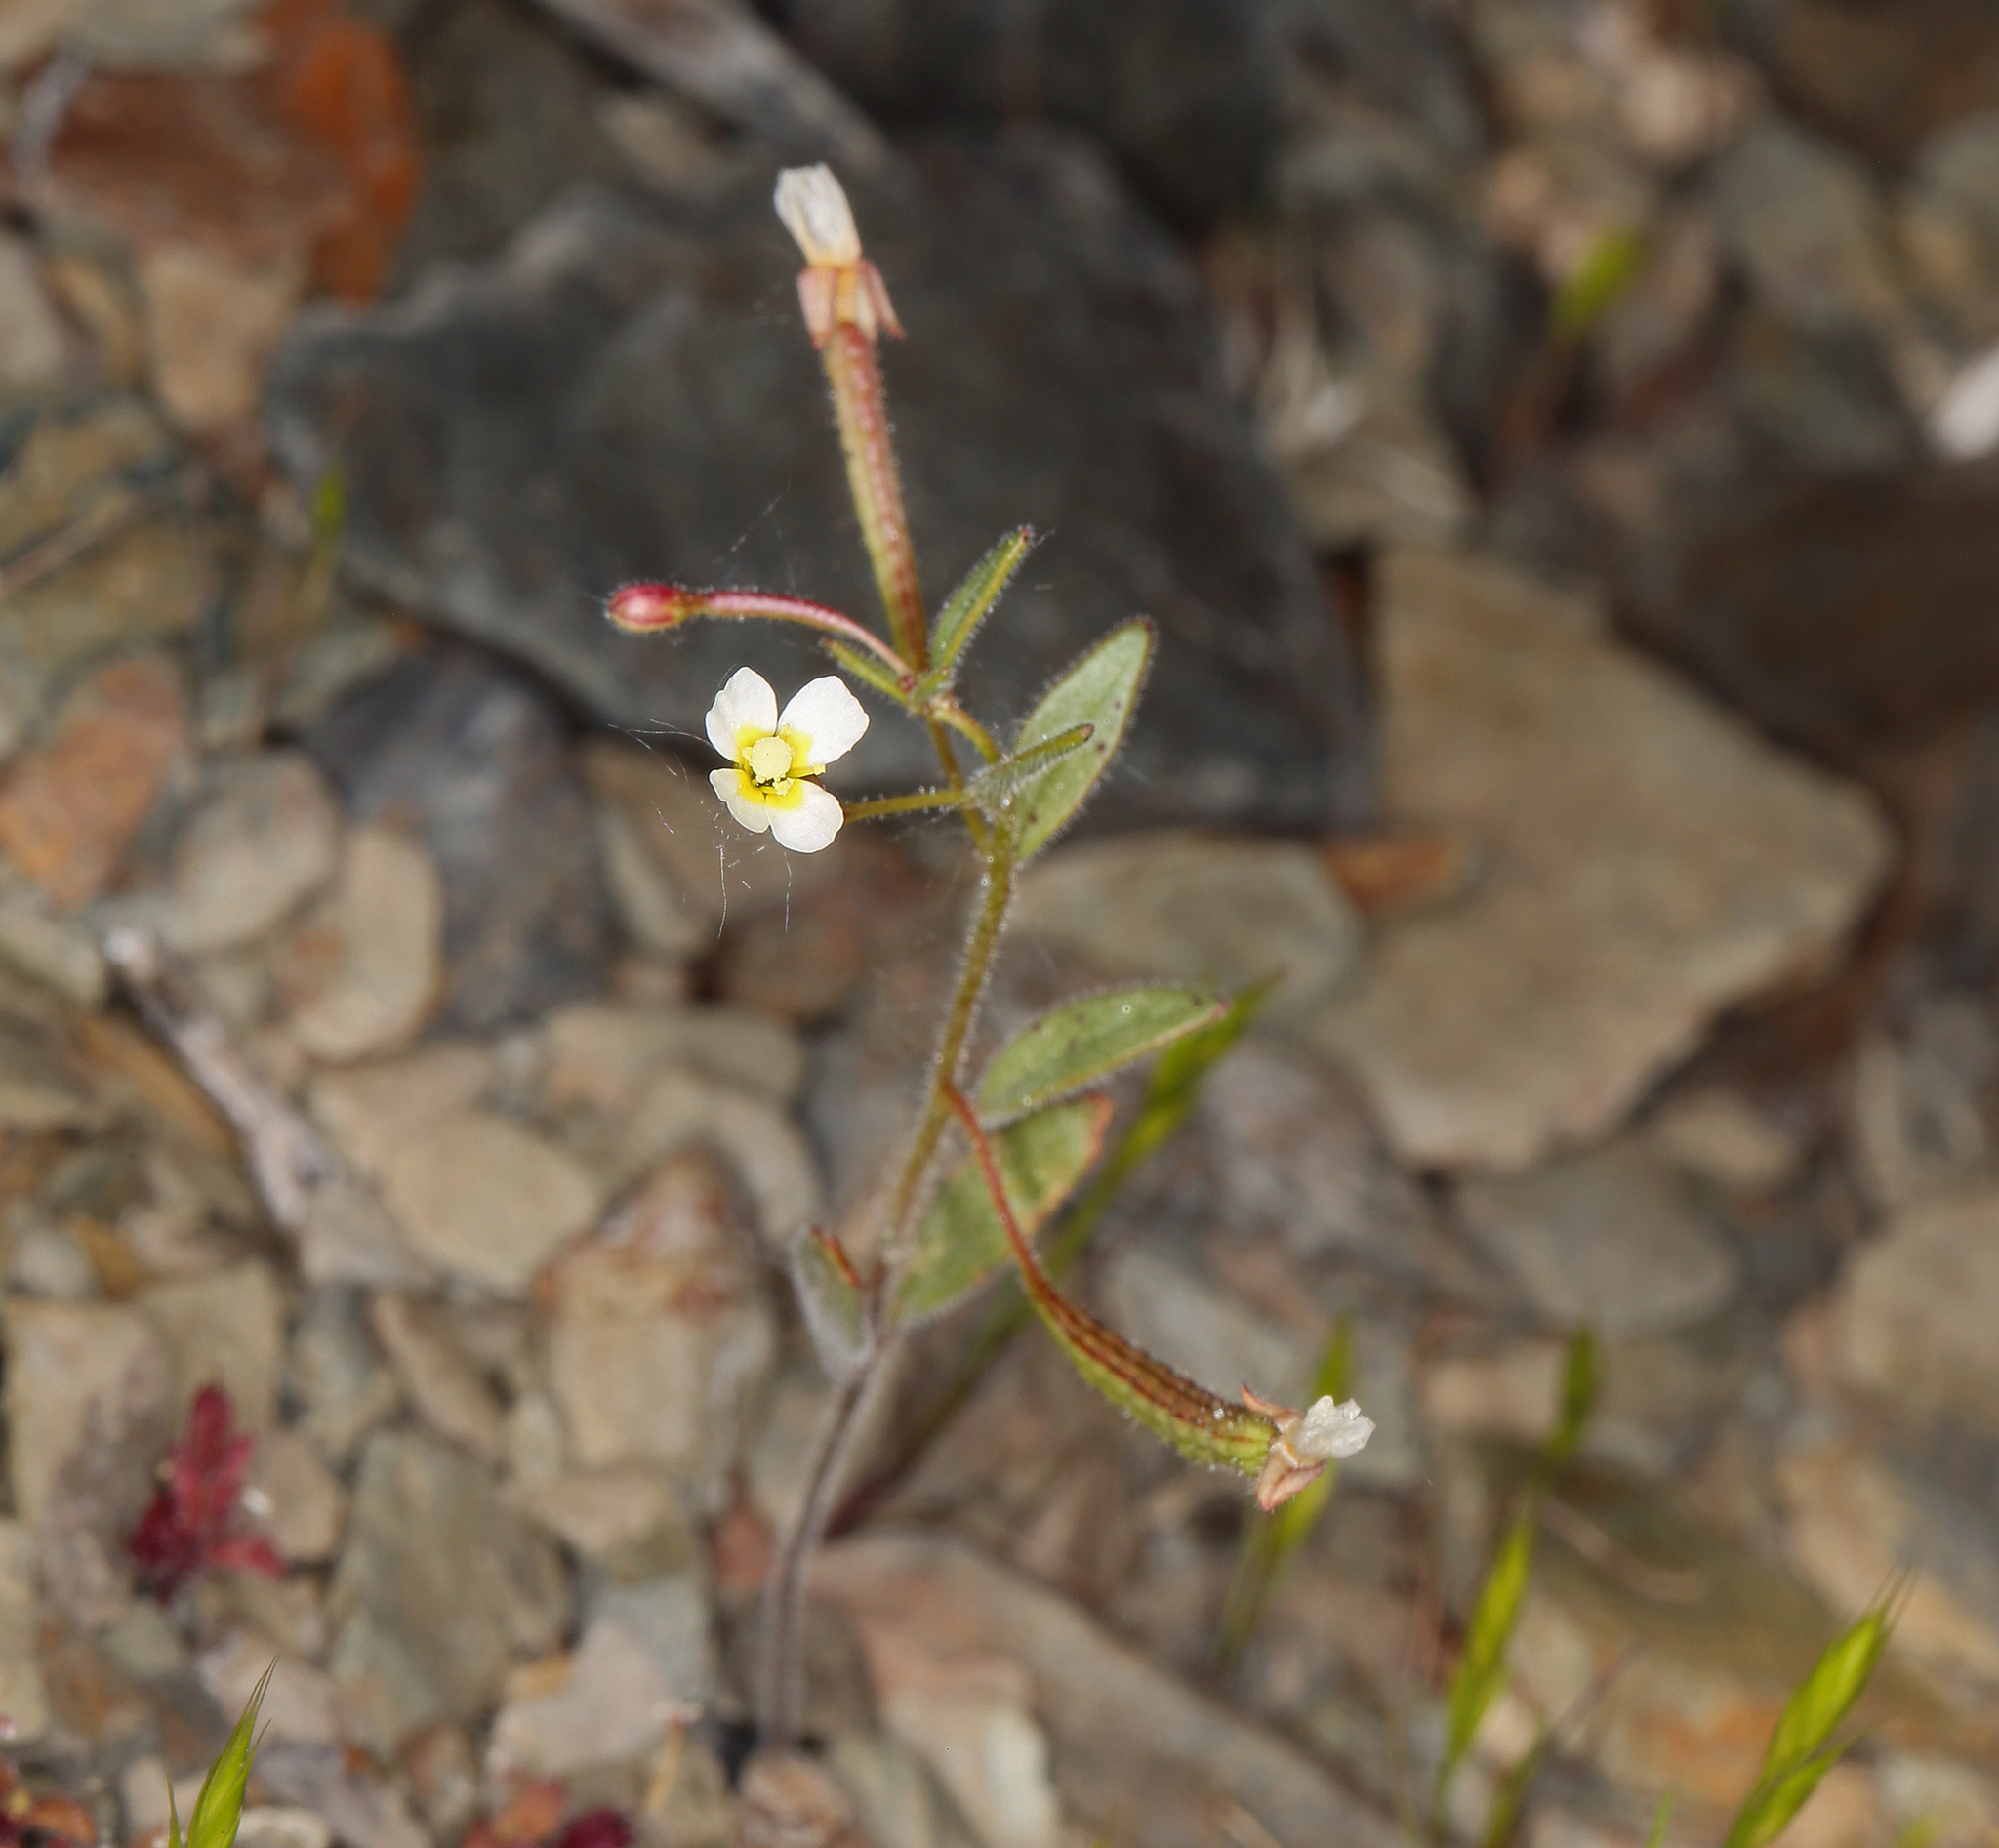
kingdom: Plantae
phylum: Tracheophyta
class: Magnoliopsida
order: Myrtales
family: Onagraceae
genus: Chylismiella
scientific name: Chylismiella pterosperma
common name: Wingfruit suncup
